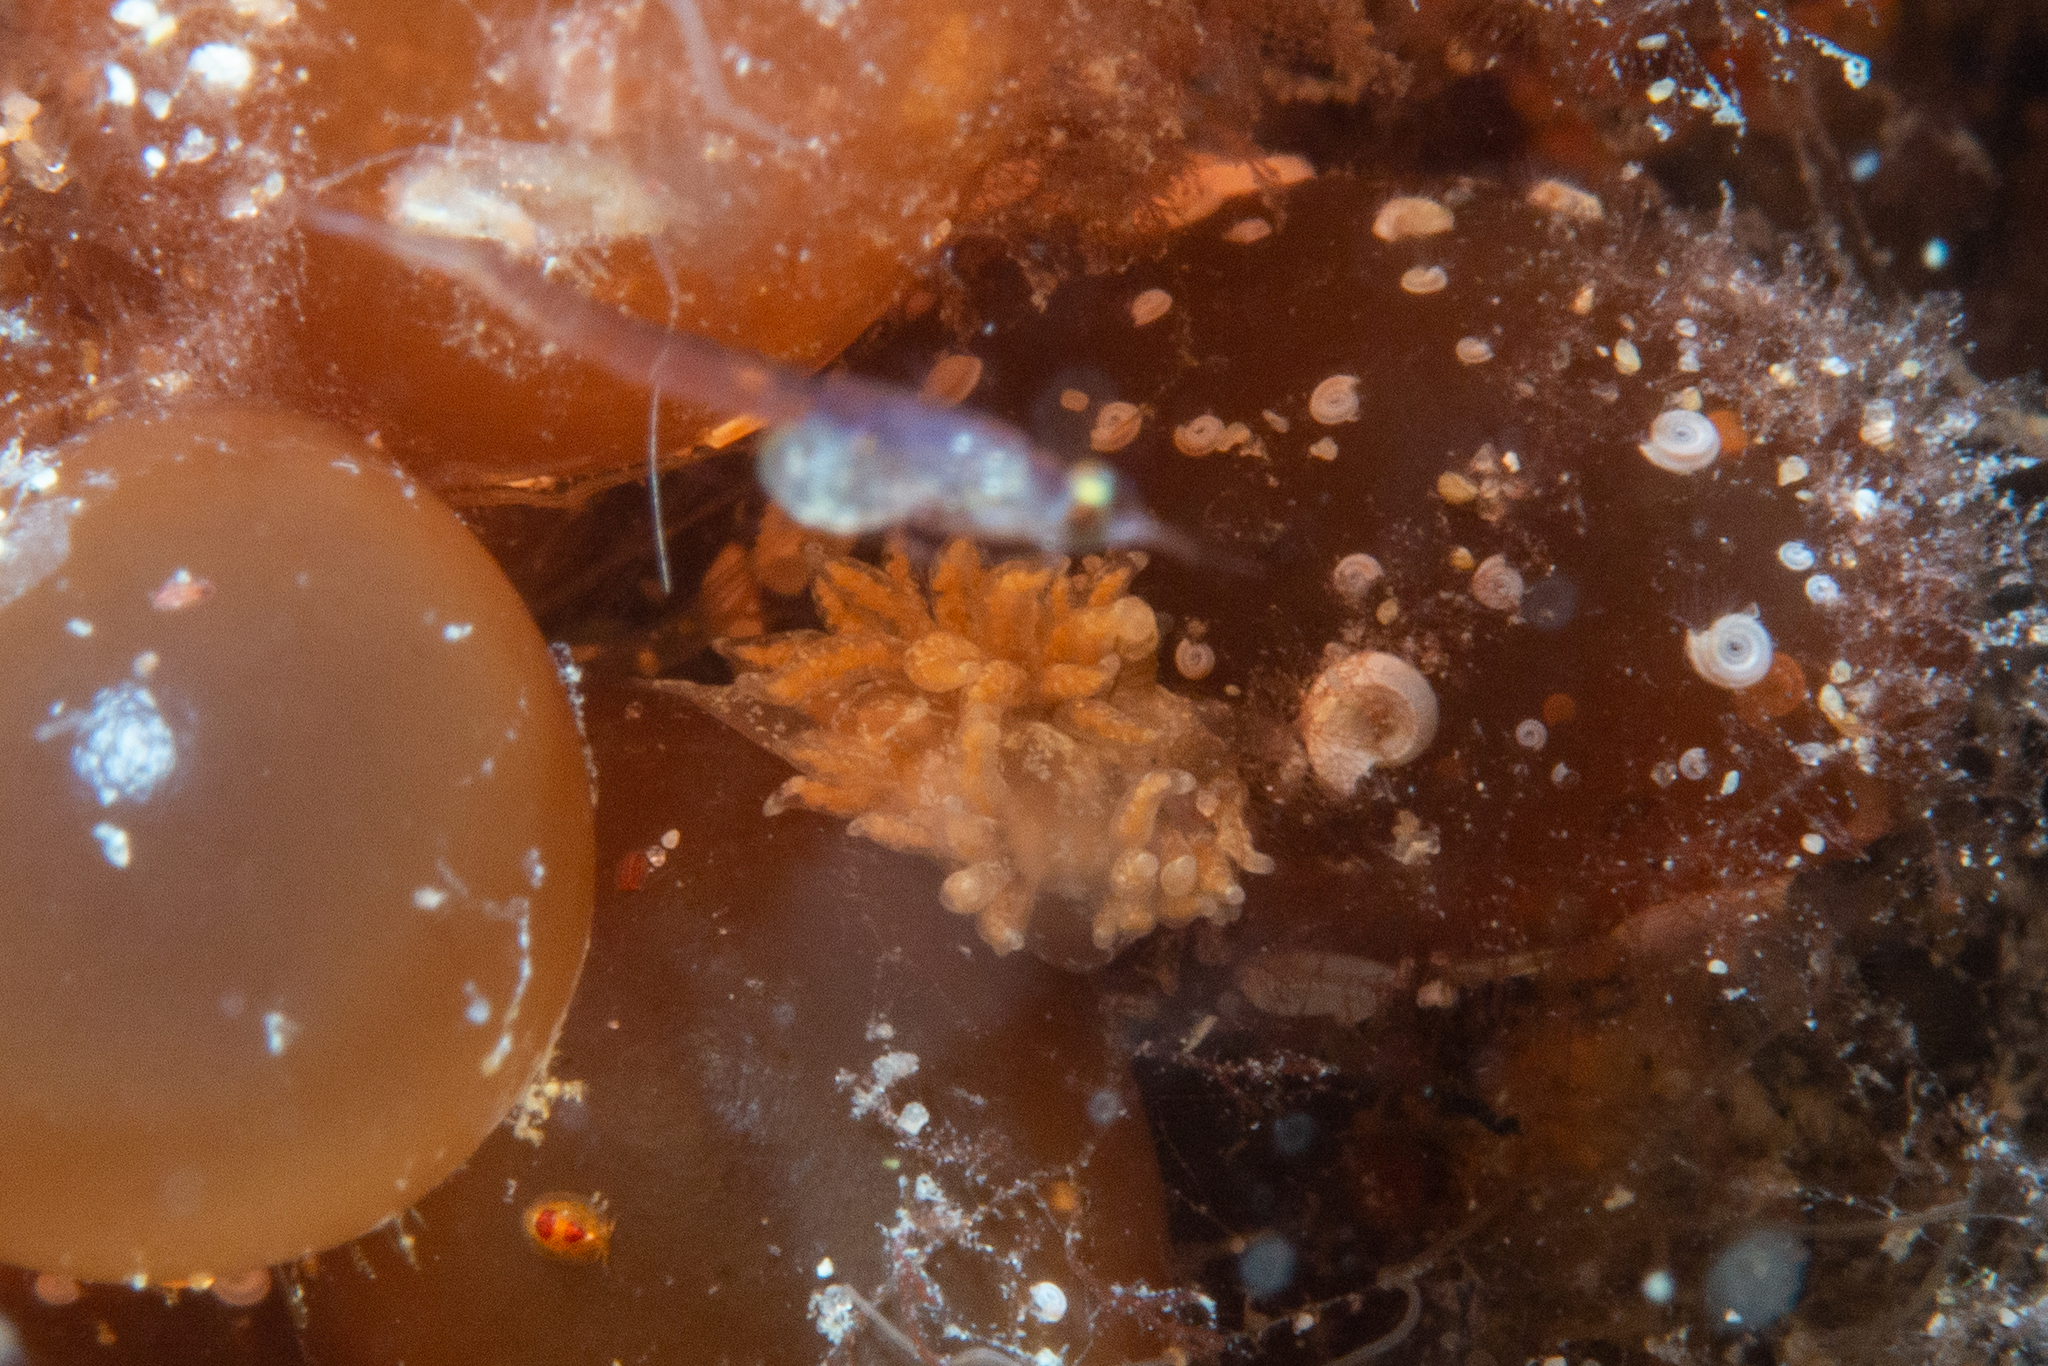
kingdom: Animalia
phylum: Mollusca
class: Gastropoda
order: Nudibranchia
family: Proctonotidae
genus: Caldukia
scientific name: Caldukia affinis
